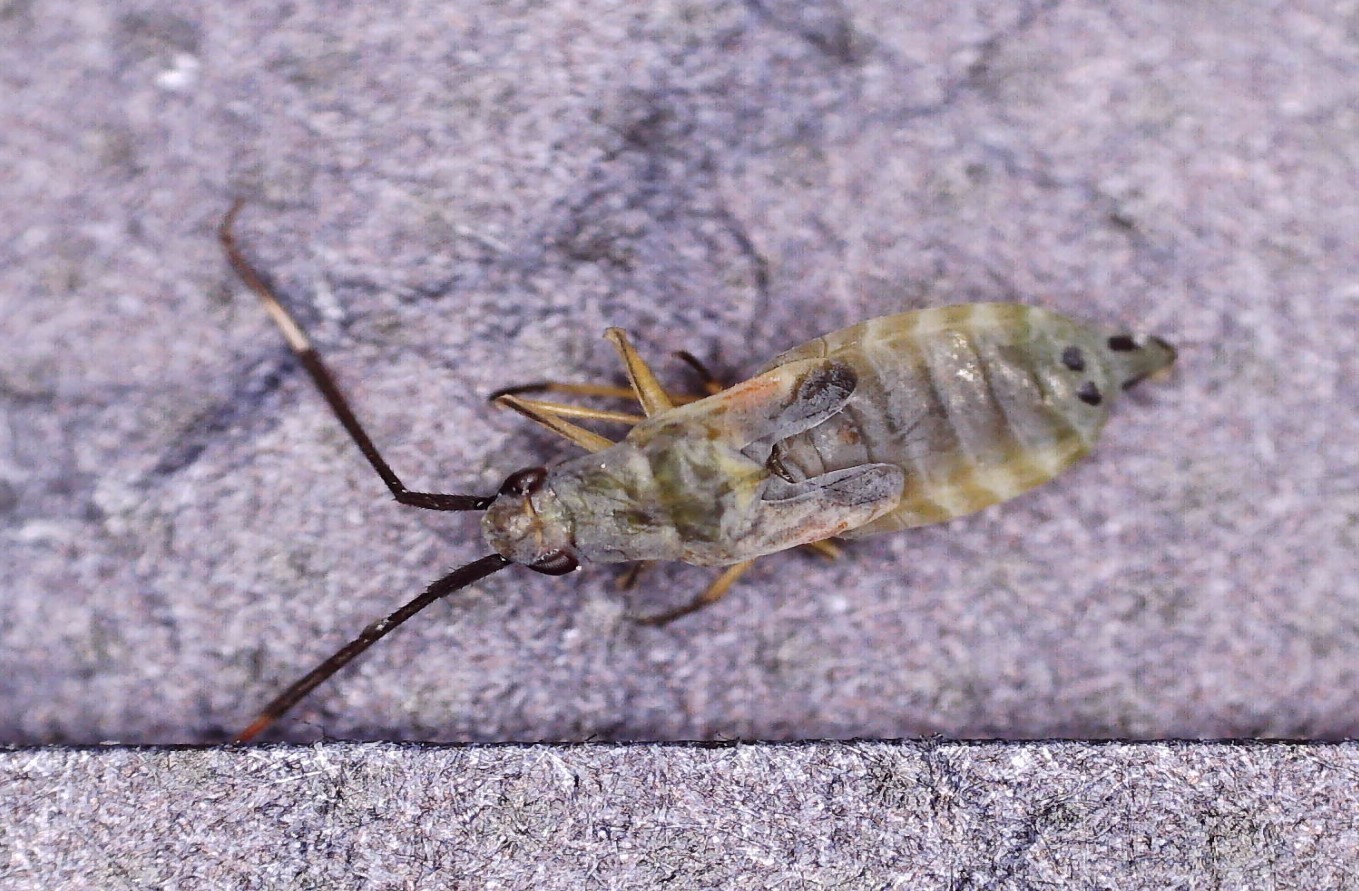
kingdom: Animalia
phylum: Arthropoda
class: Insecta
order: Hemiptera
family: Miridae
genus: Cyllecoris
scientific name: Cyllecoris histrionius
